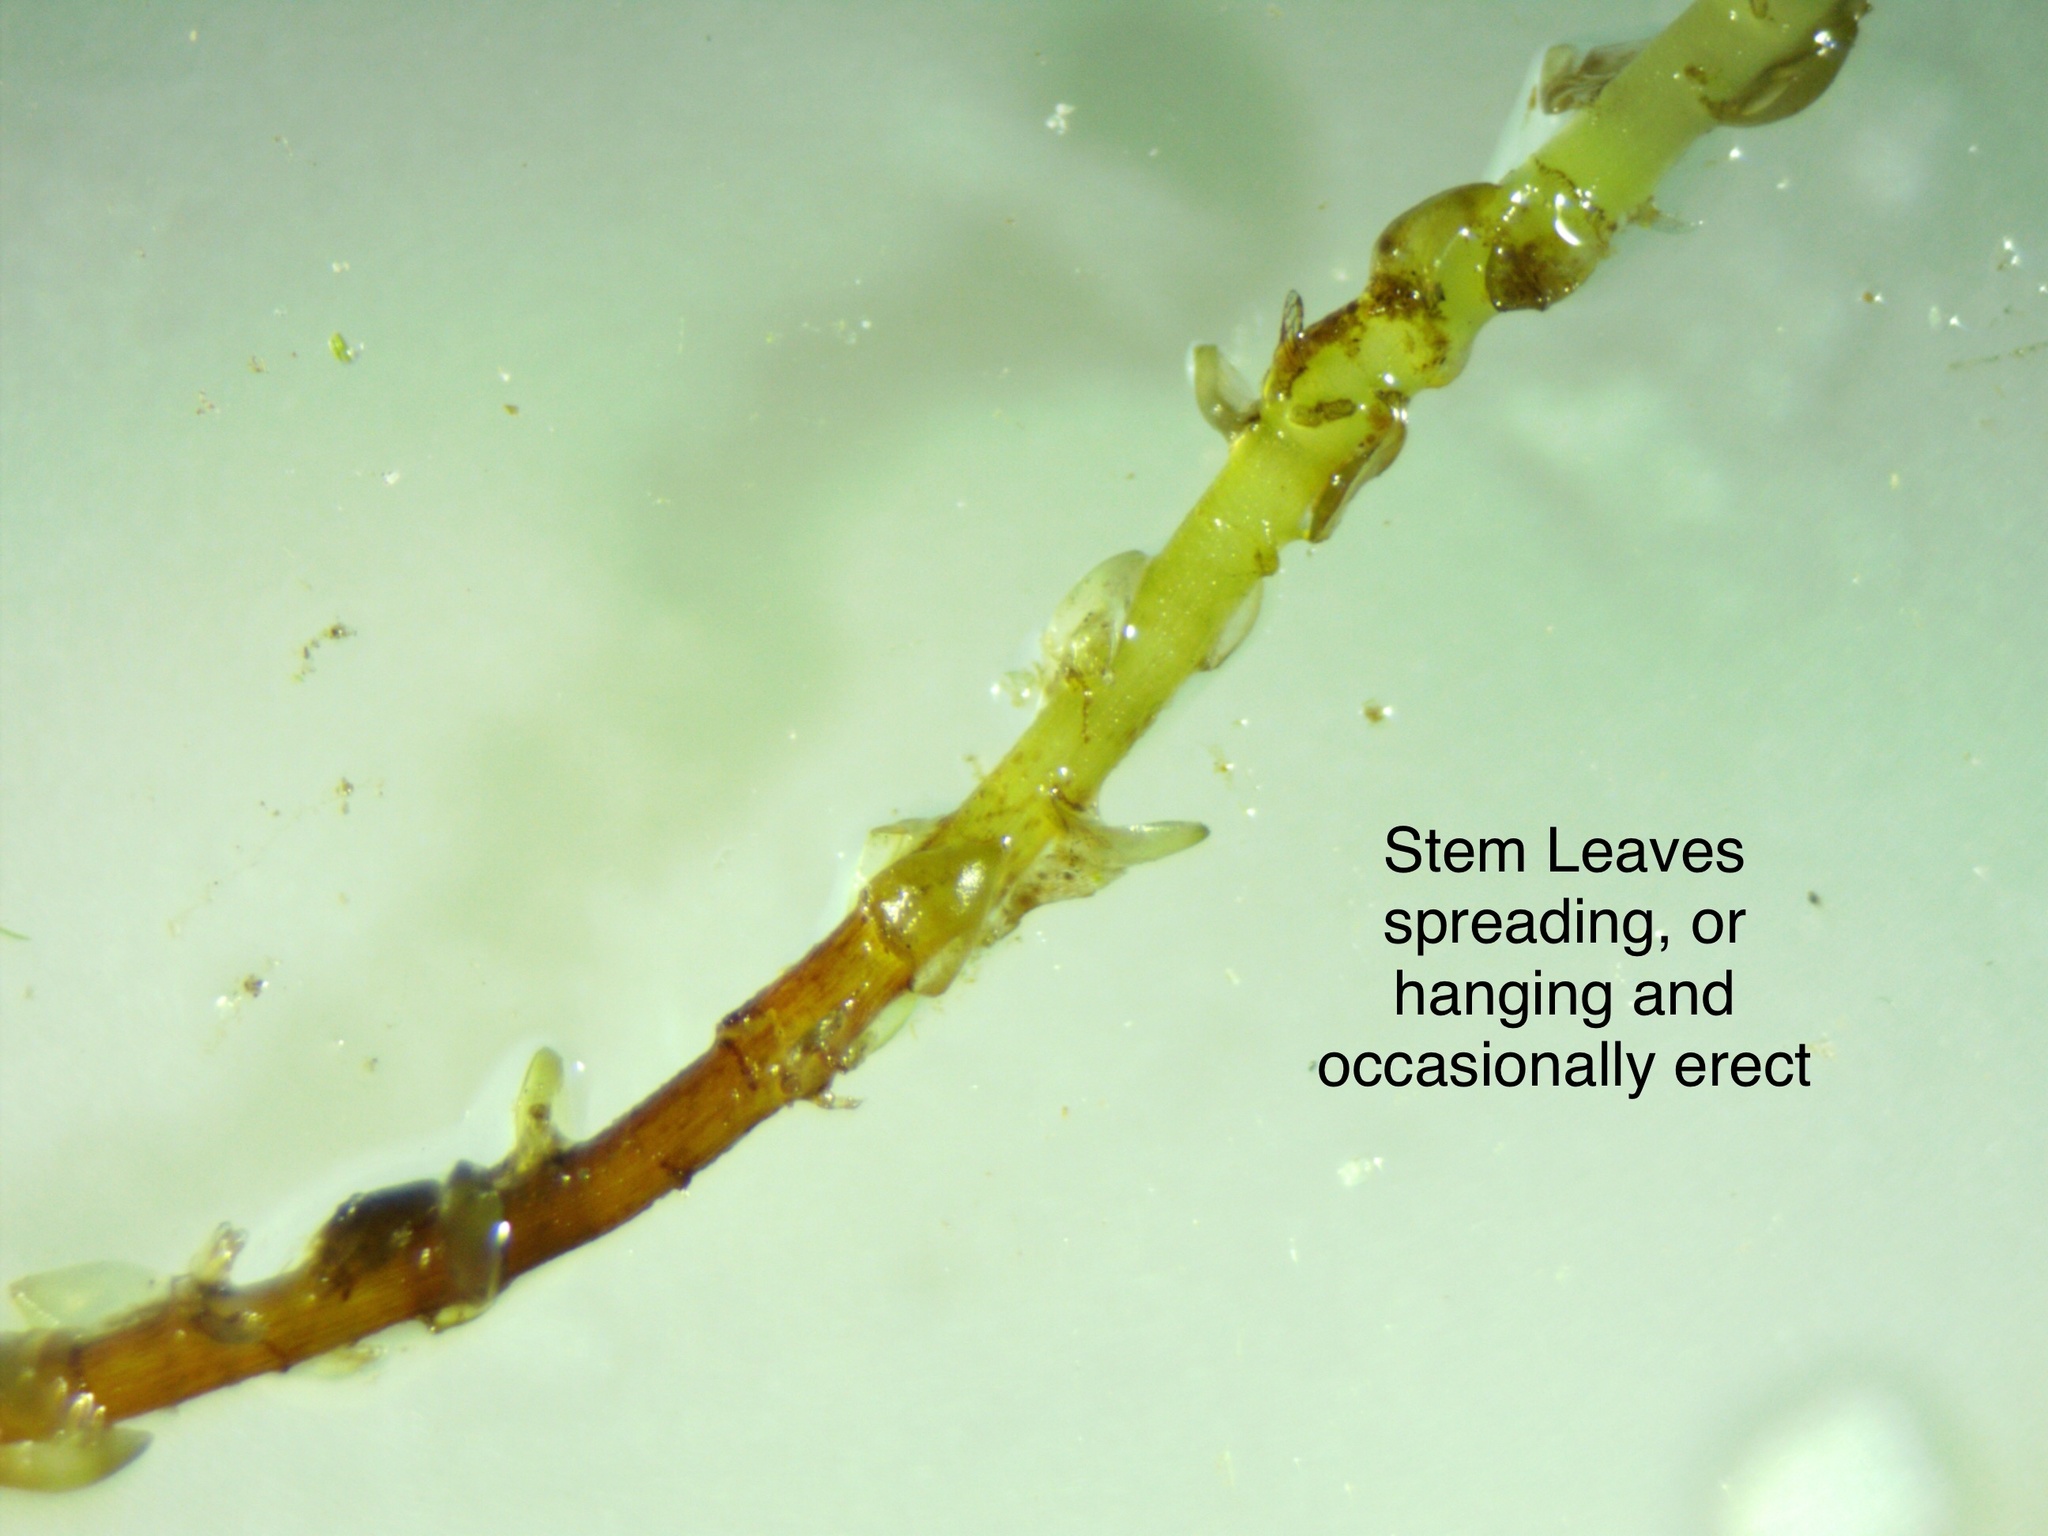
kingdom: Plantae
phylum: Bryophyta
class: Sphagnopsida
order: Sphagnales
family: Sphagnaceae
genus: Sphagnum
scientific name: Sphagnum subsecundum
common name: Orange peat moss
